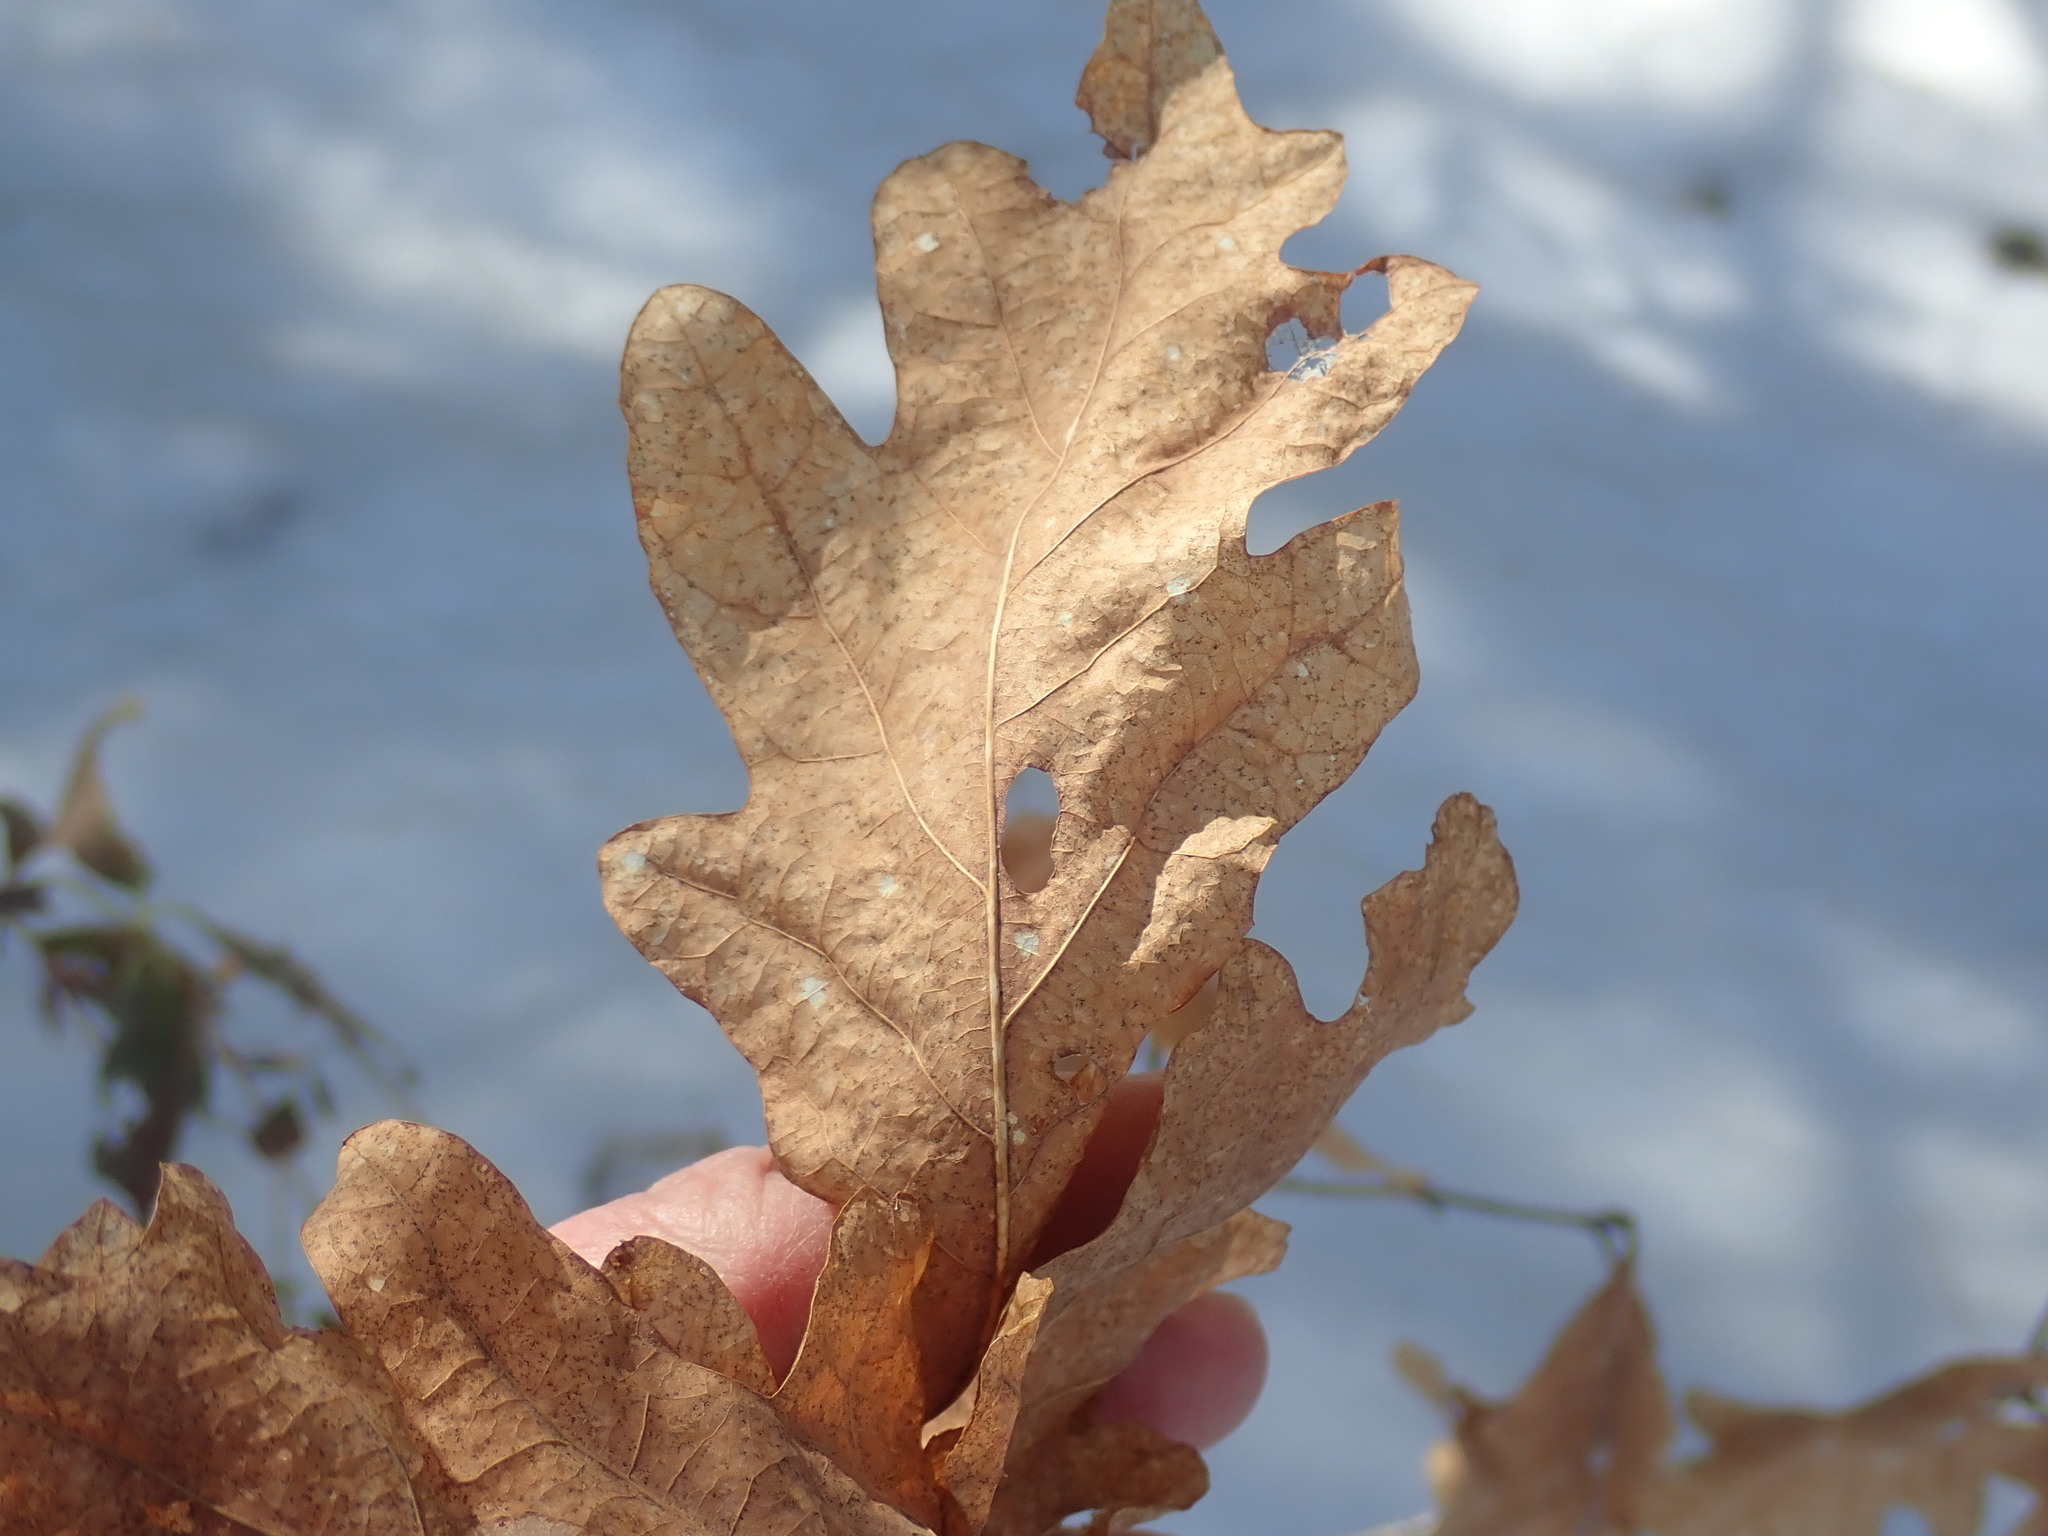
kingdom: Plantae
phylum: Tracheophyta
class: Magnoliopsida
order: Fagales
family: Fagaceae
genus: Quercus
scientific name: Quercus alba
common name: White oak
